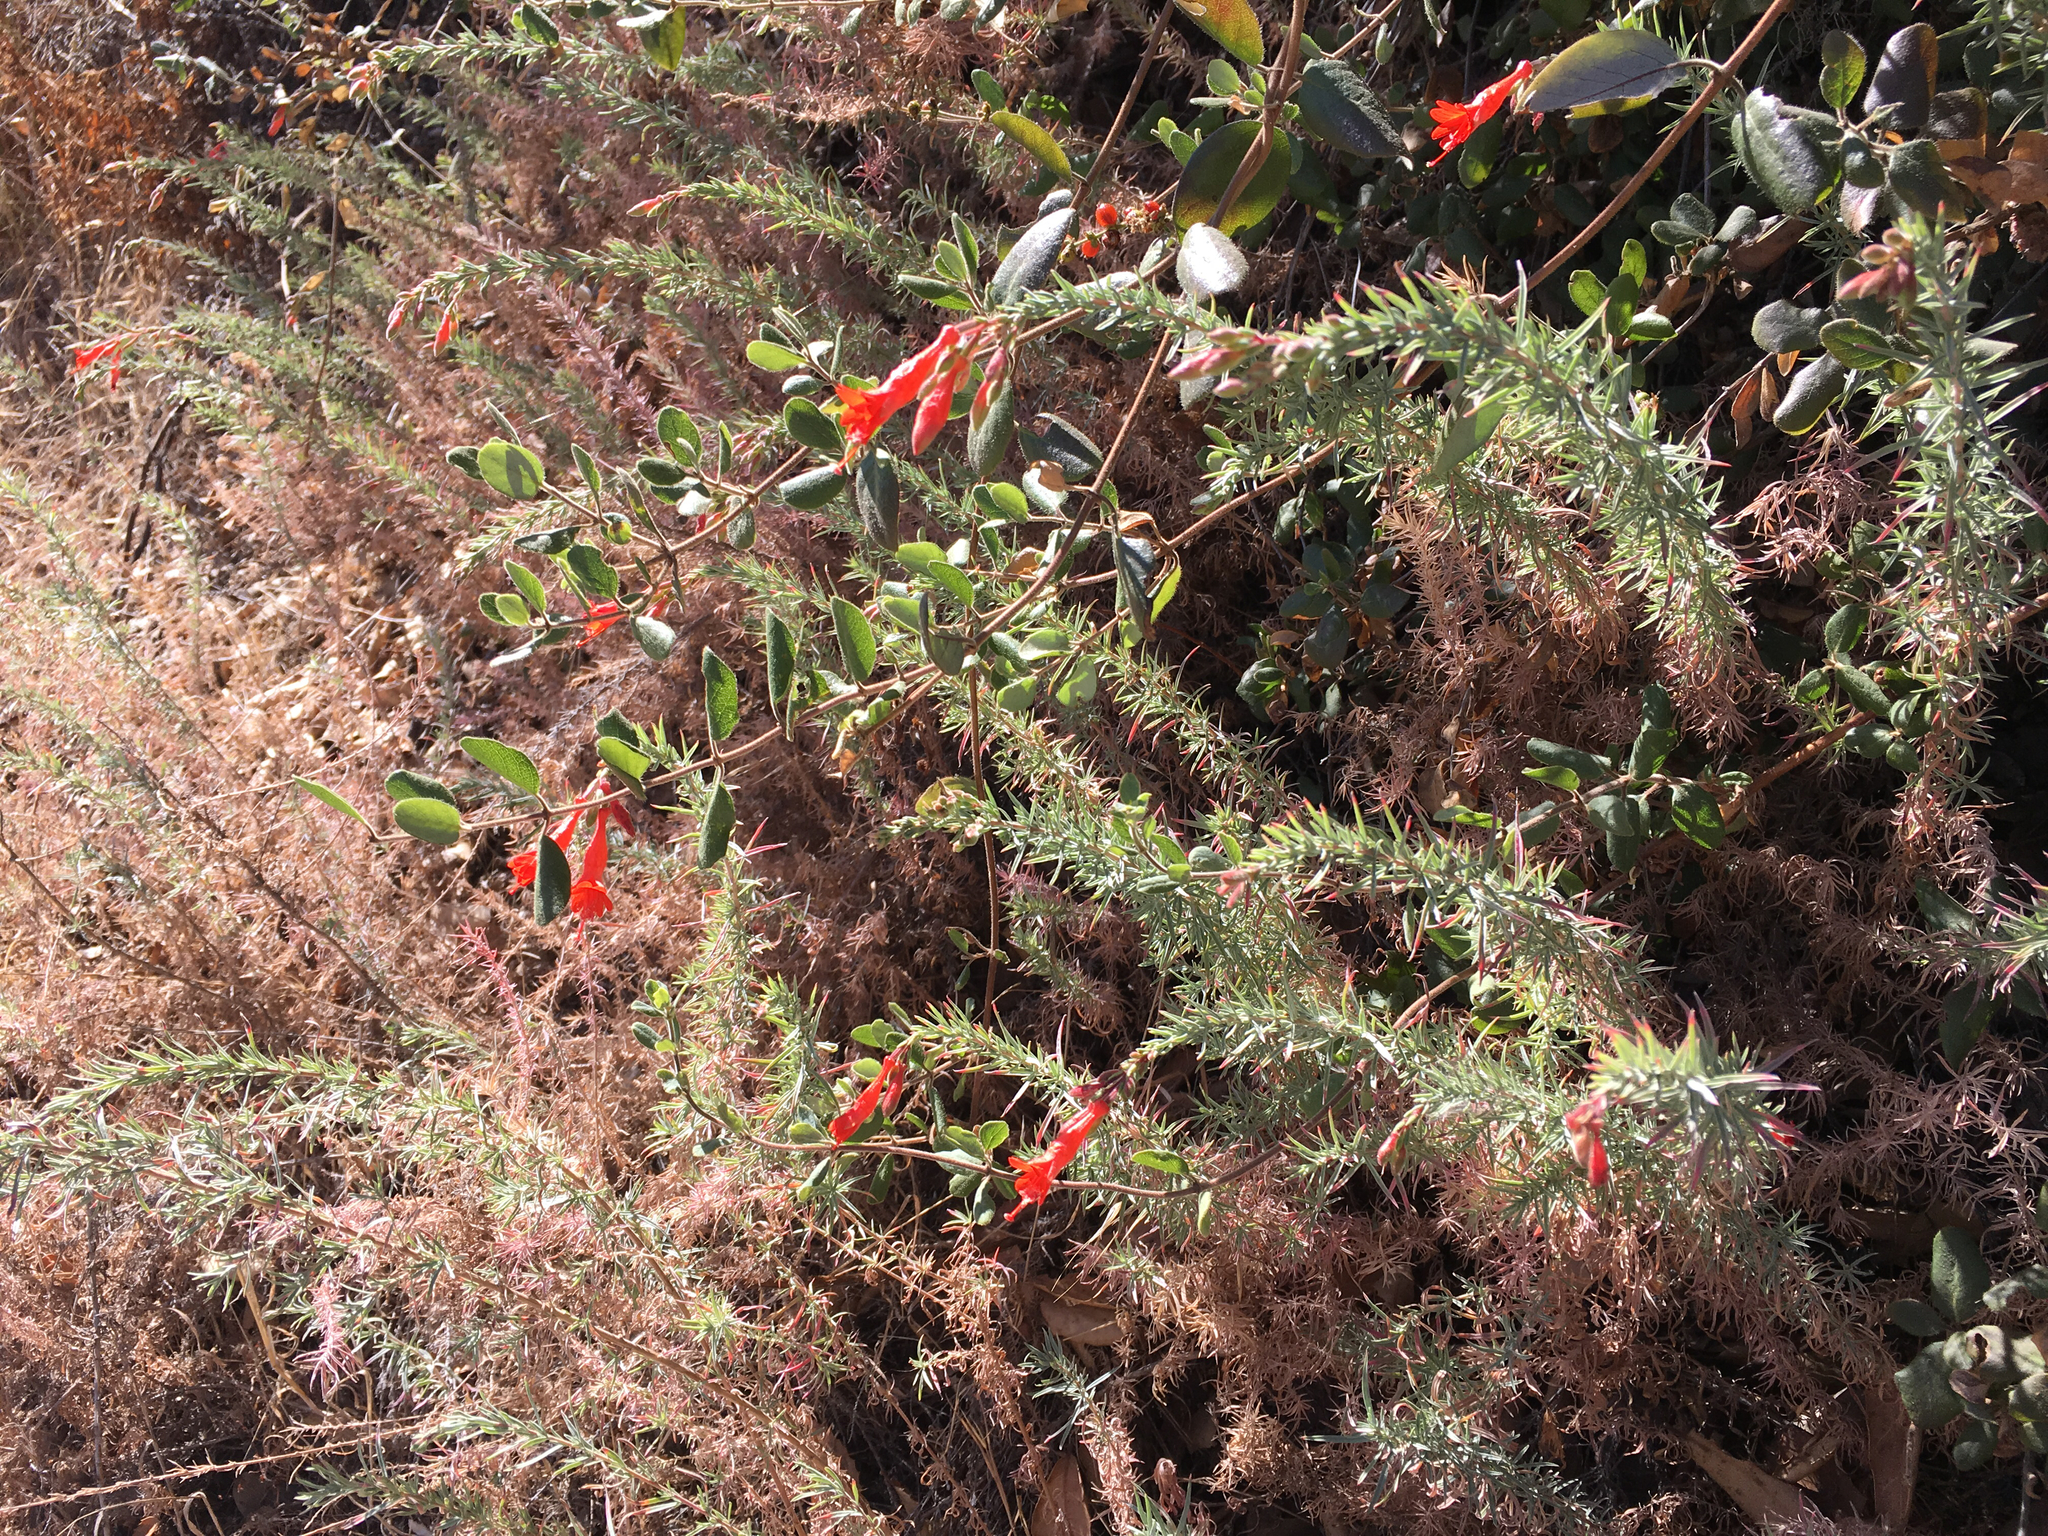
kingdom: Plantae
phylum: Tracheophyta
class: Magnoliopsida
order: Myrtales
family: Onagraceae
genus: Epilobium
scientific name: Epilobium canum
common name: California-fuchsia
